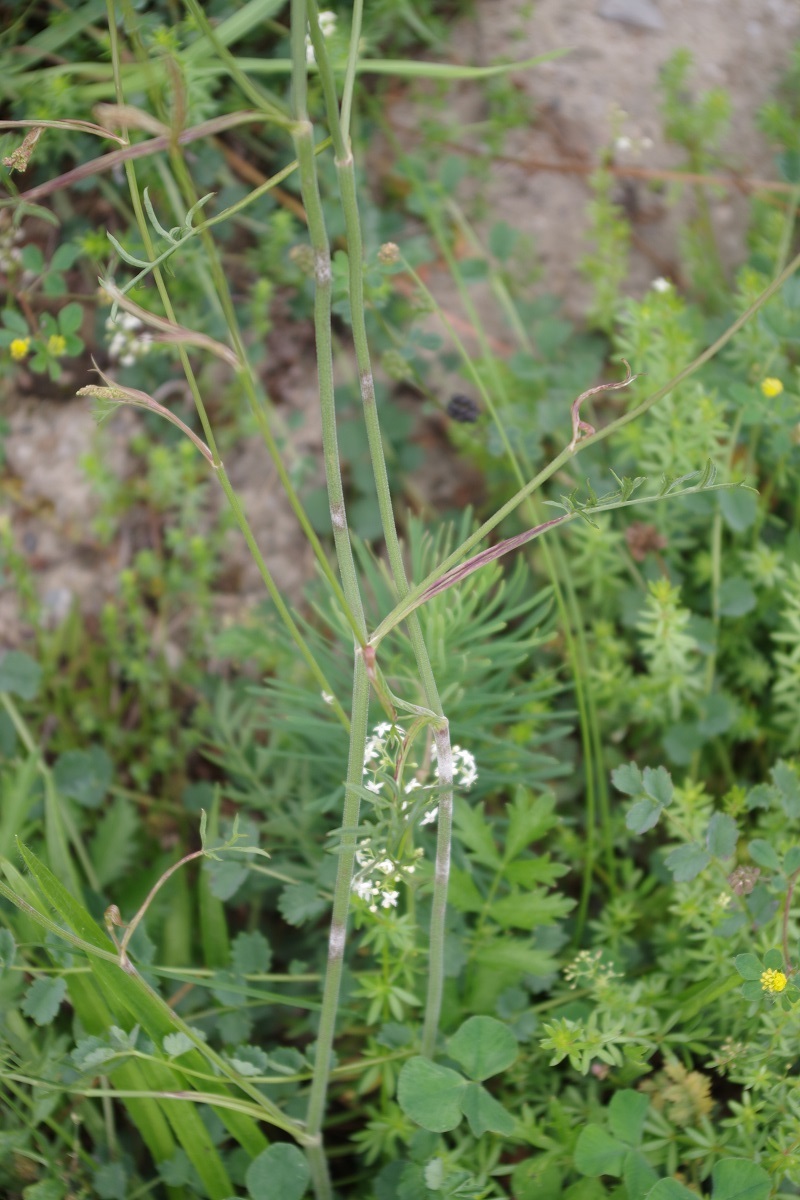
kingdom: Plantae
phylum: Tracheophyta
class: Magnoliopsida
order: Apiales
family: Apiaceae
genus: Pimpinella
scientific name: Pimpinella saxifraga
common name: Burnet-saxifrage
